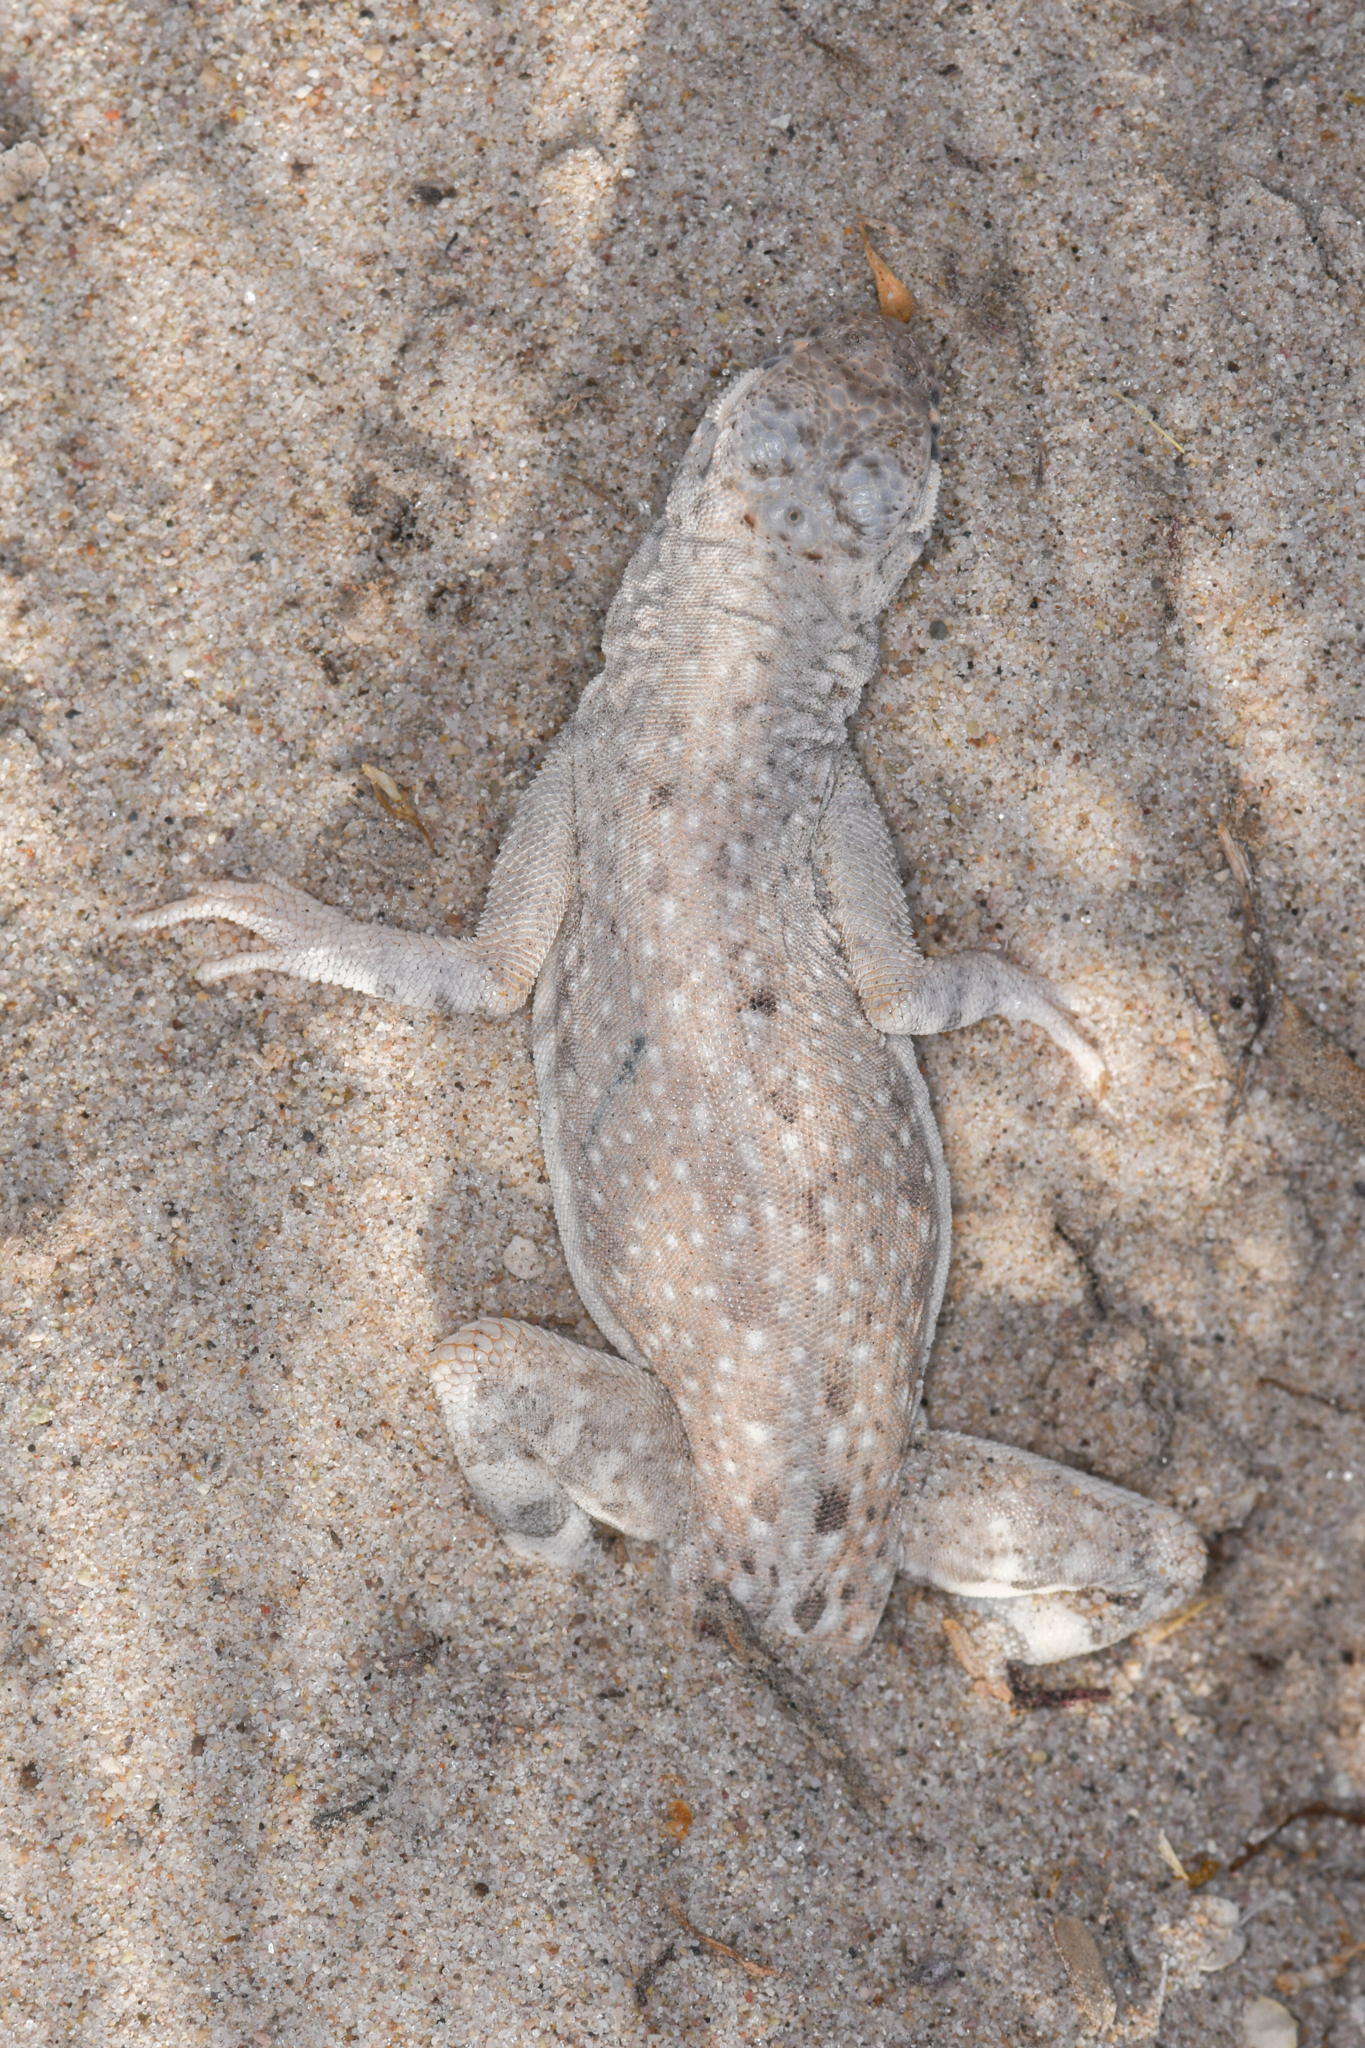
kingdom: Animalia
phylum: Chordata
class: Squamata
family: Phrynosomatidae
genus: Callisaurus
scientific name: Callisaurus draconoides
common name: Zebra-tailed lizard
